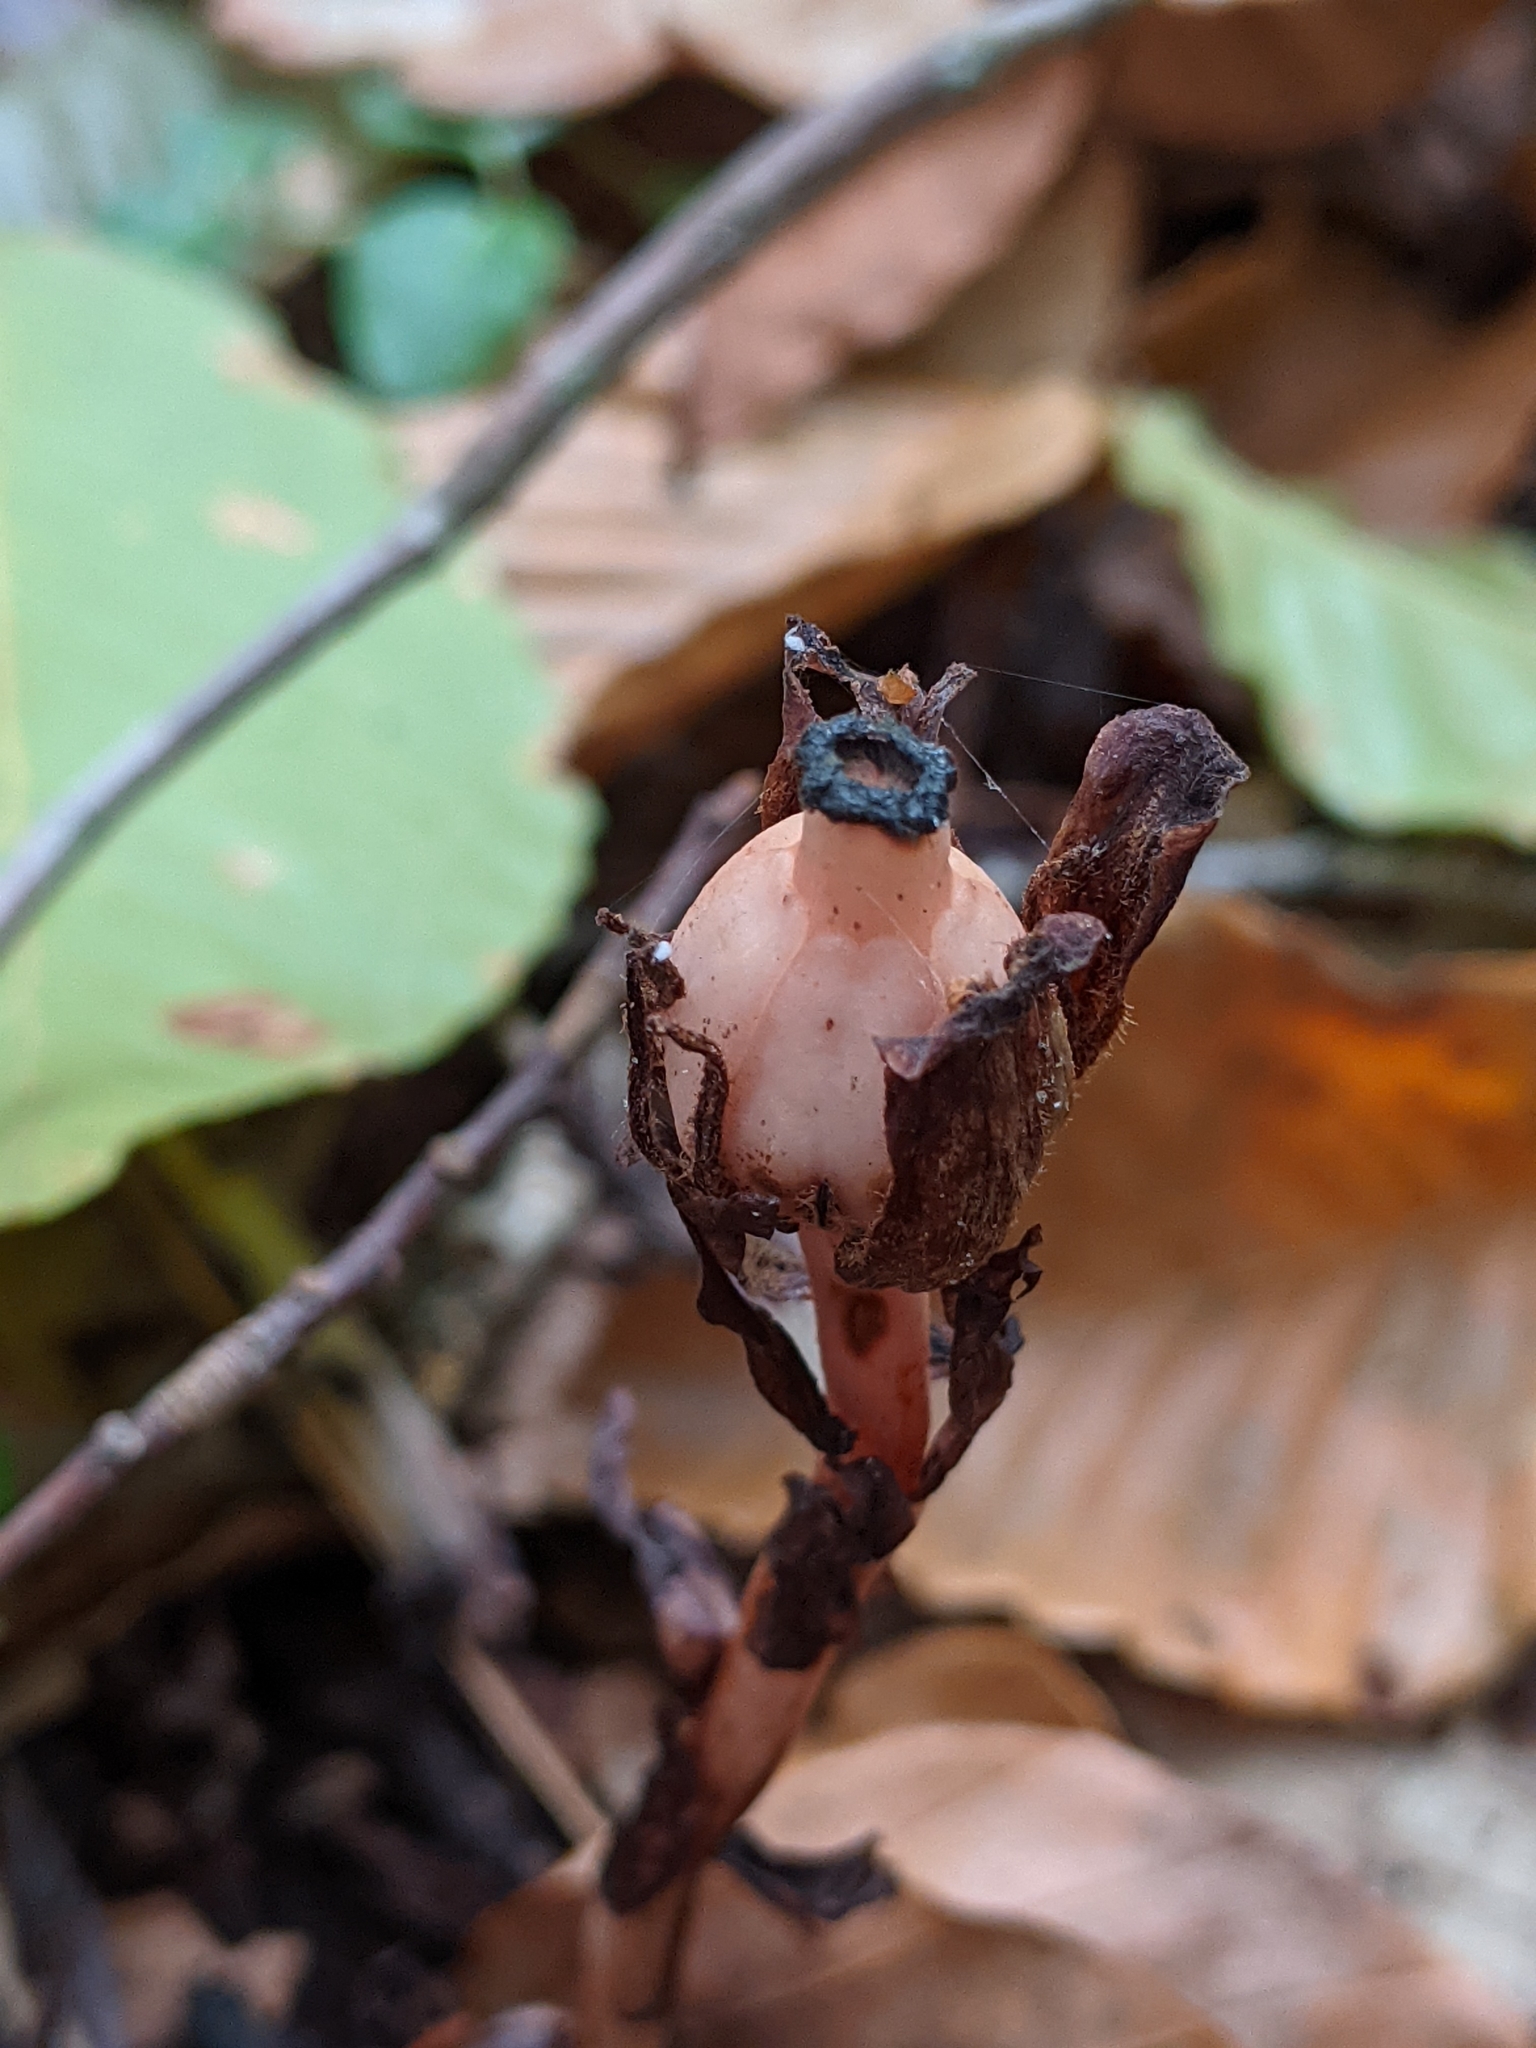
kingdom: Plantae
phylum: Tracheophyta
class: Magnoliopsida
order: Ericales
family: Ericaceae
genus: Monotropa
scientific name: Monotropa uniflora
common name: Convulsion root
